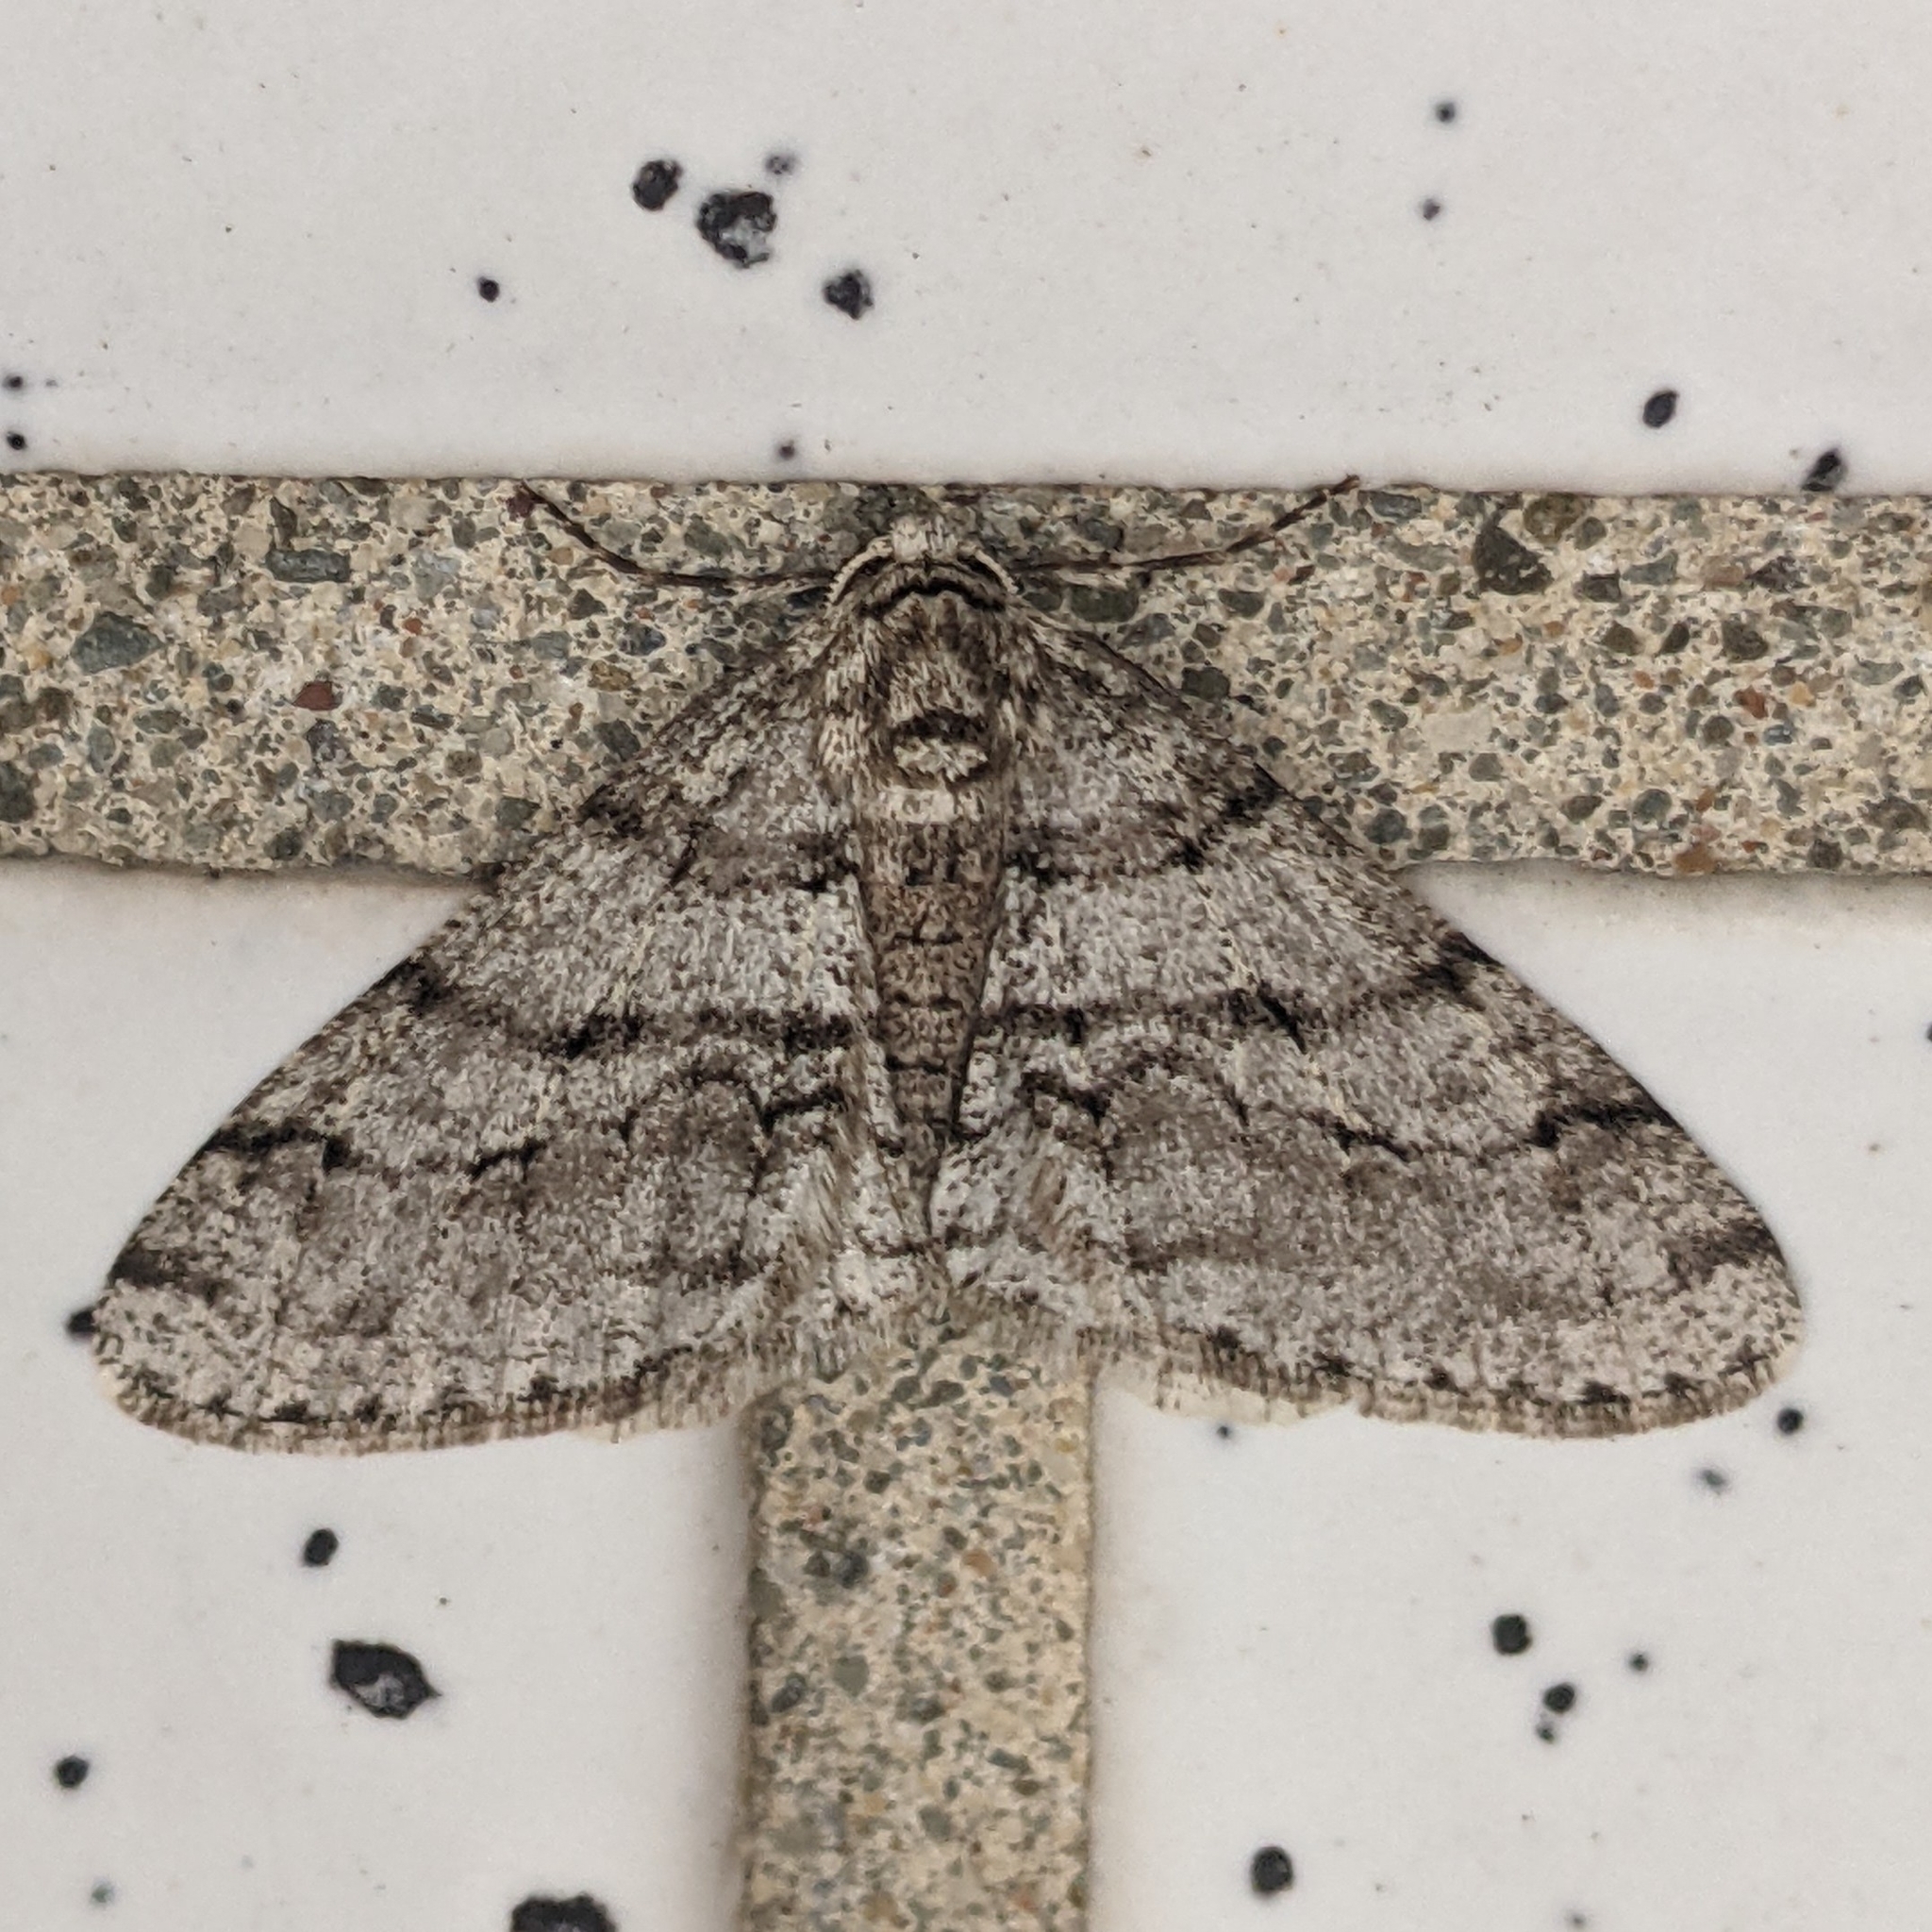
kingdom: Animalia
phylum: Arthropoda
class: Insecta
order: Lepidoptera
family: Geometridae
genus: Phigalia
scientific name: Phigalia titea
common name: Spiny looper
